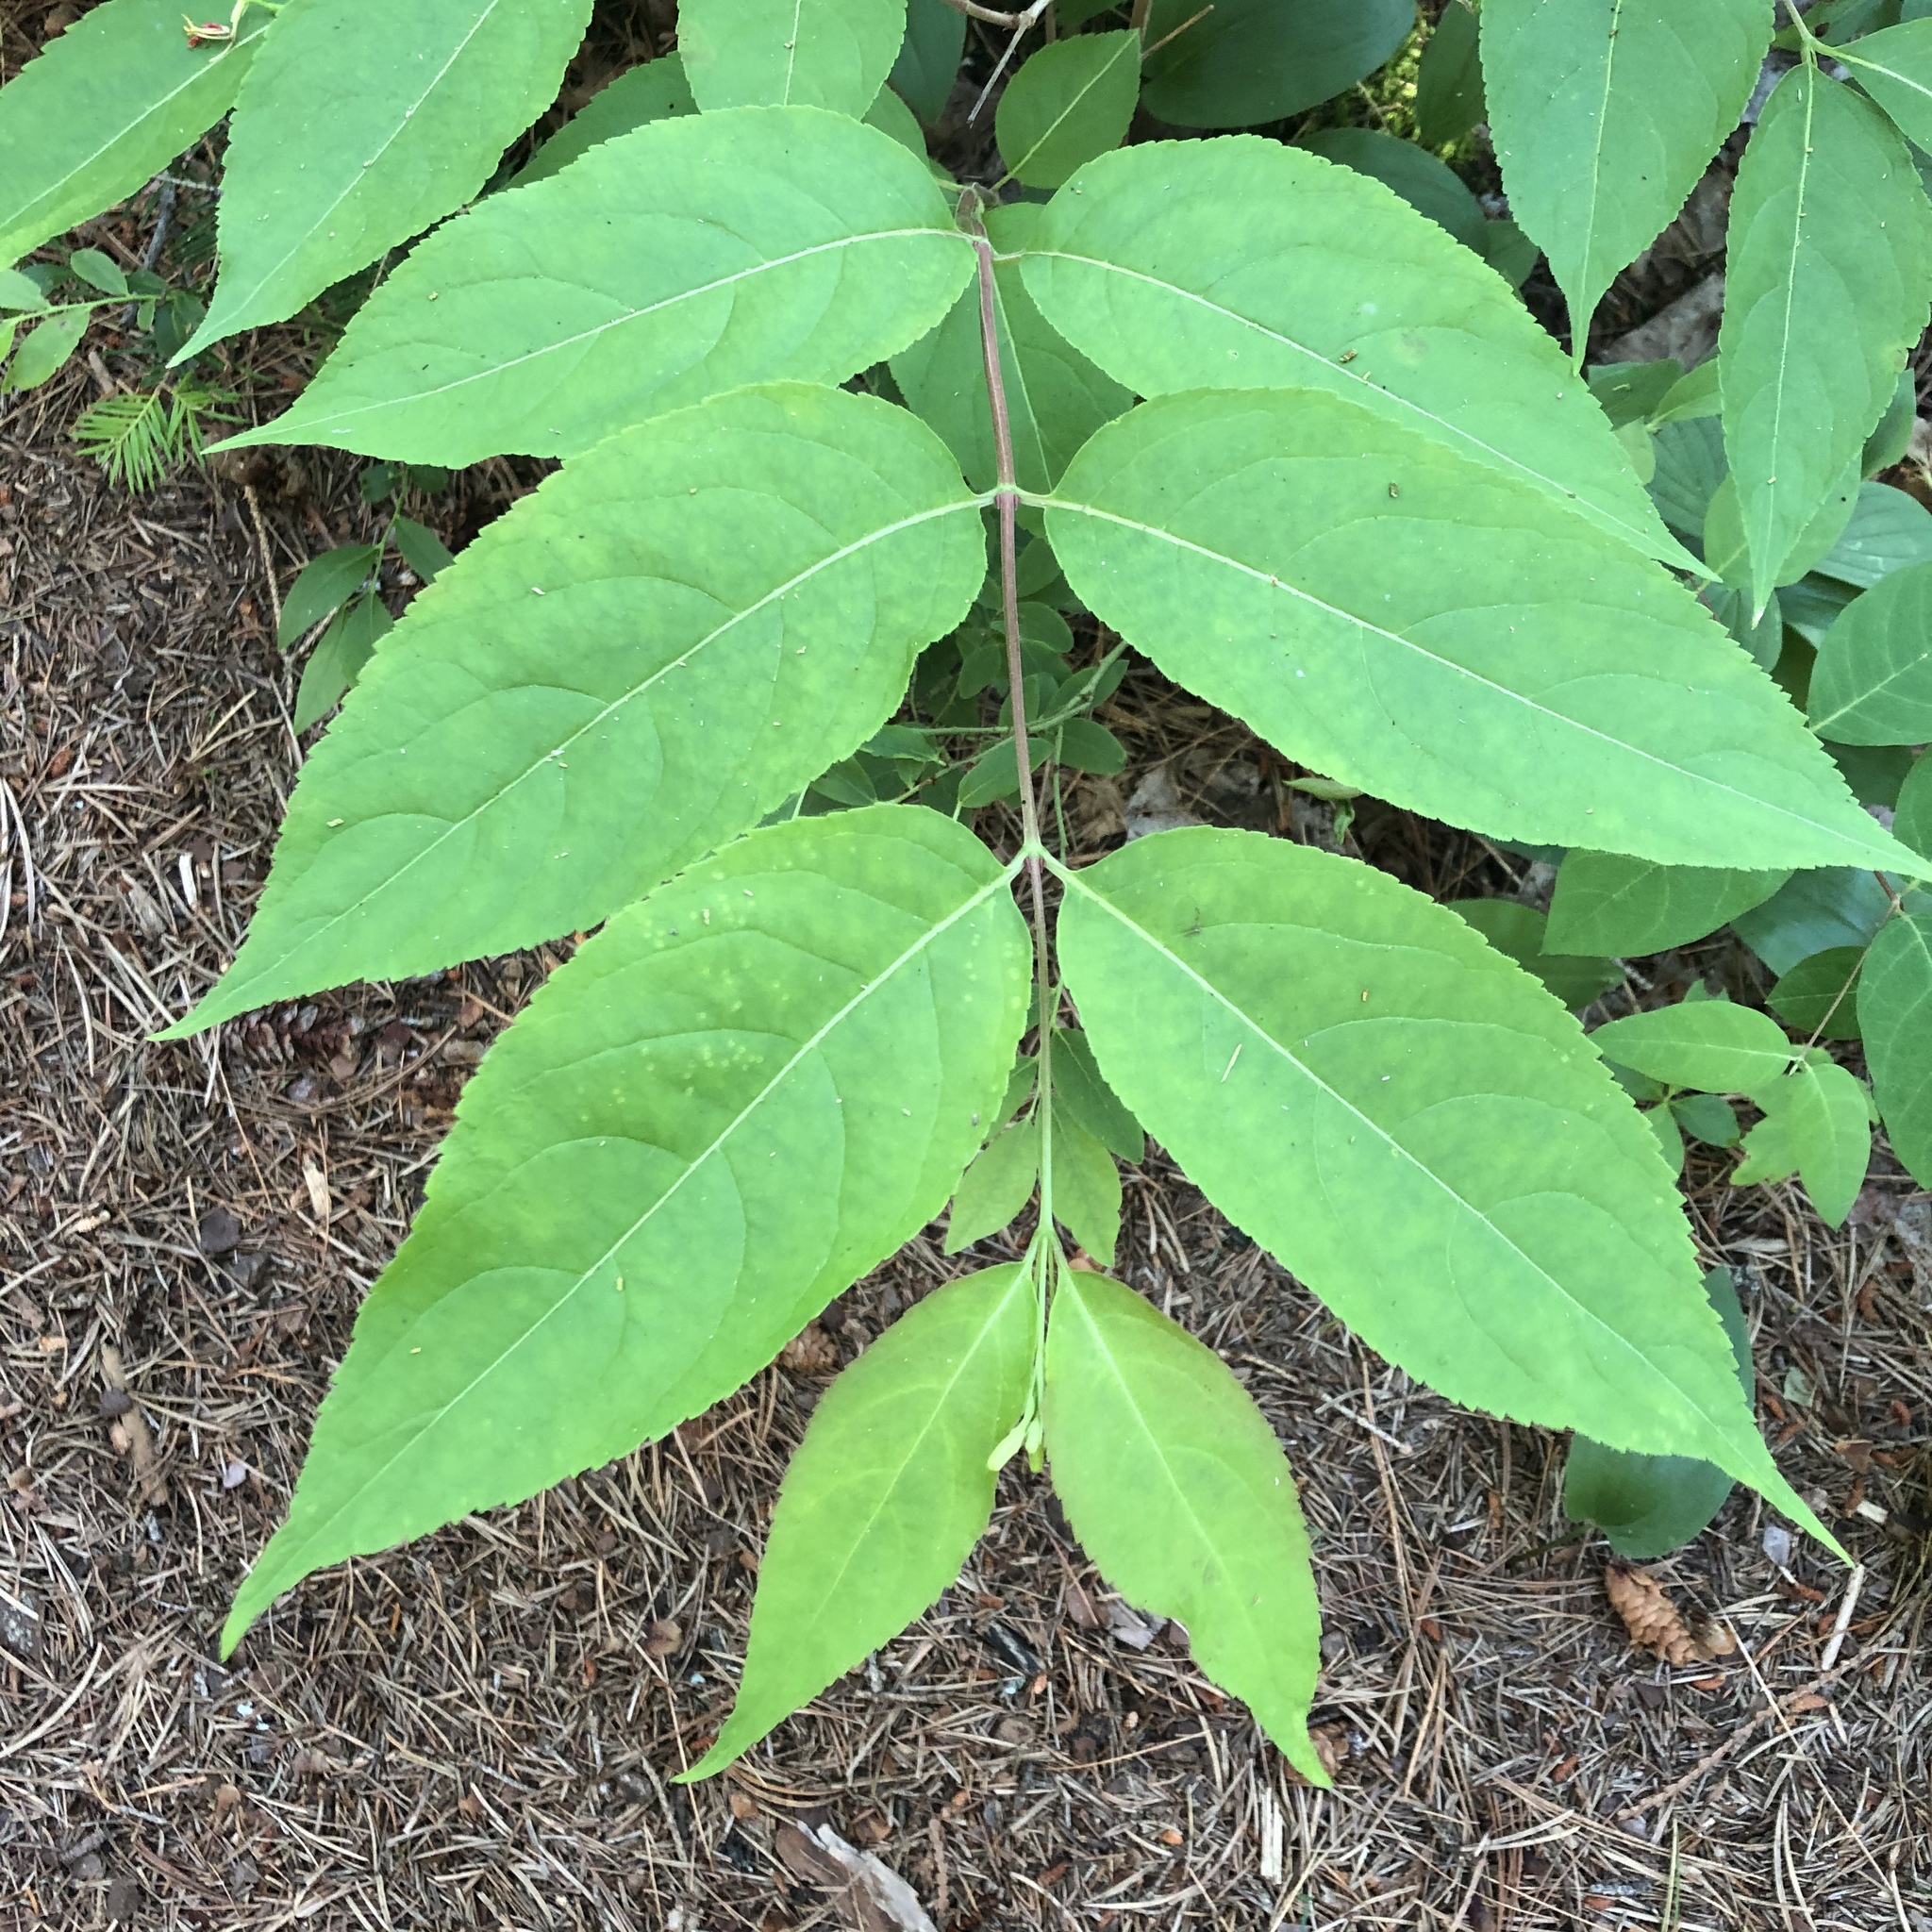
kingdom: Plantae
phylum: Tracheophyta
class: Magnoliopsida
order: Dipsacales
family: Caprifoliaceae
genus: Diervilla
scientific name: Diervilla lonicera
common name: Bush-honeysuckle
